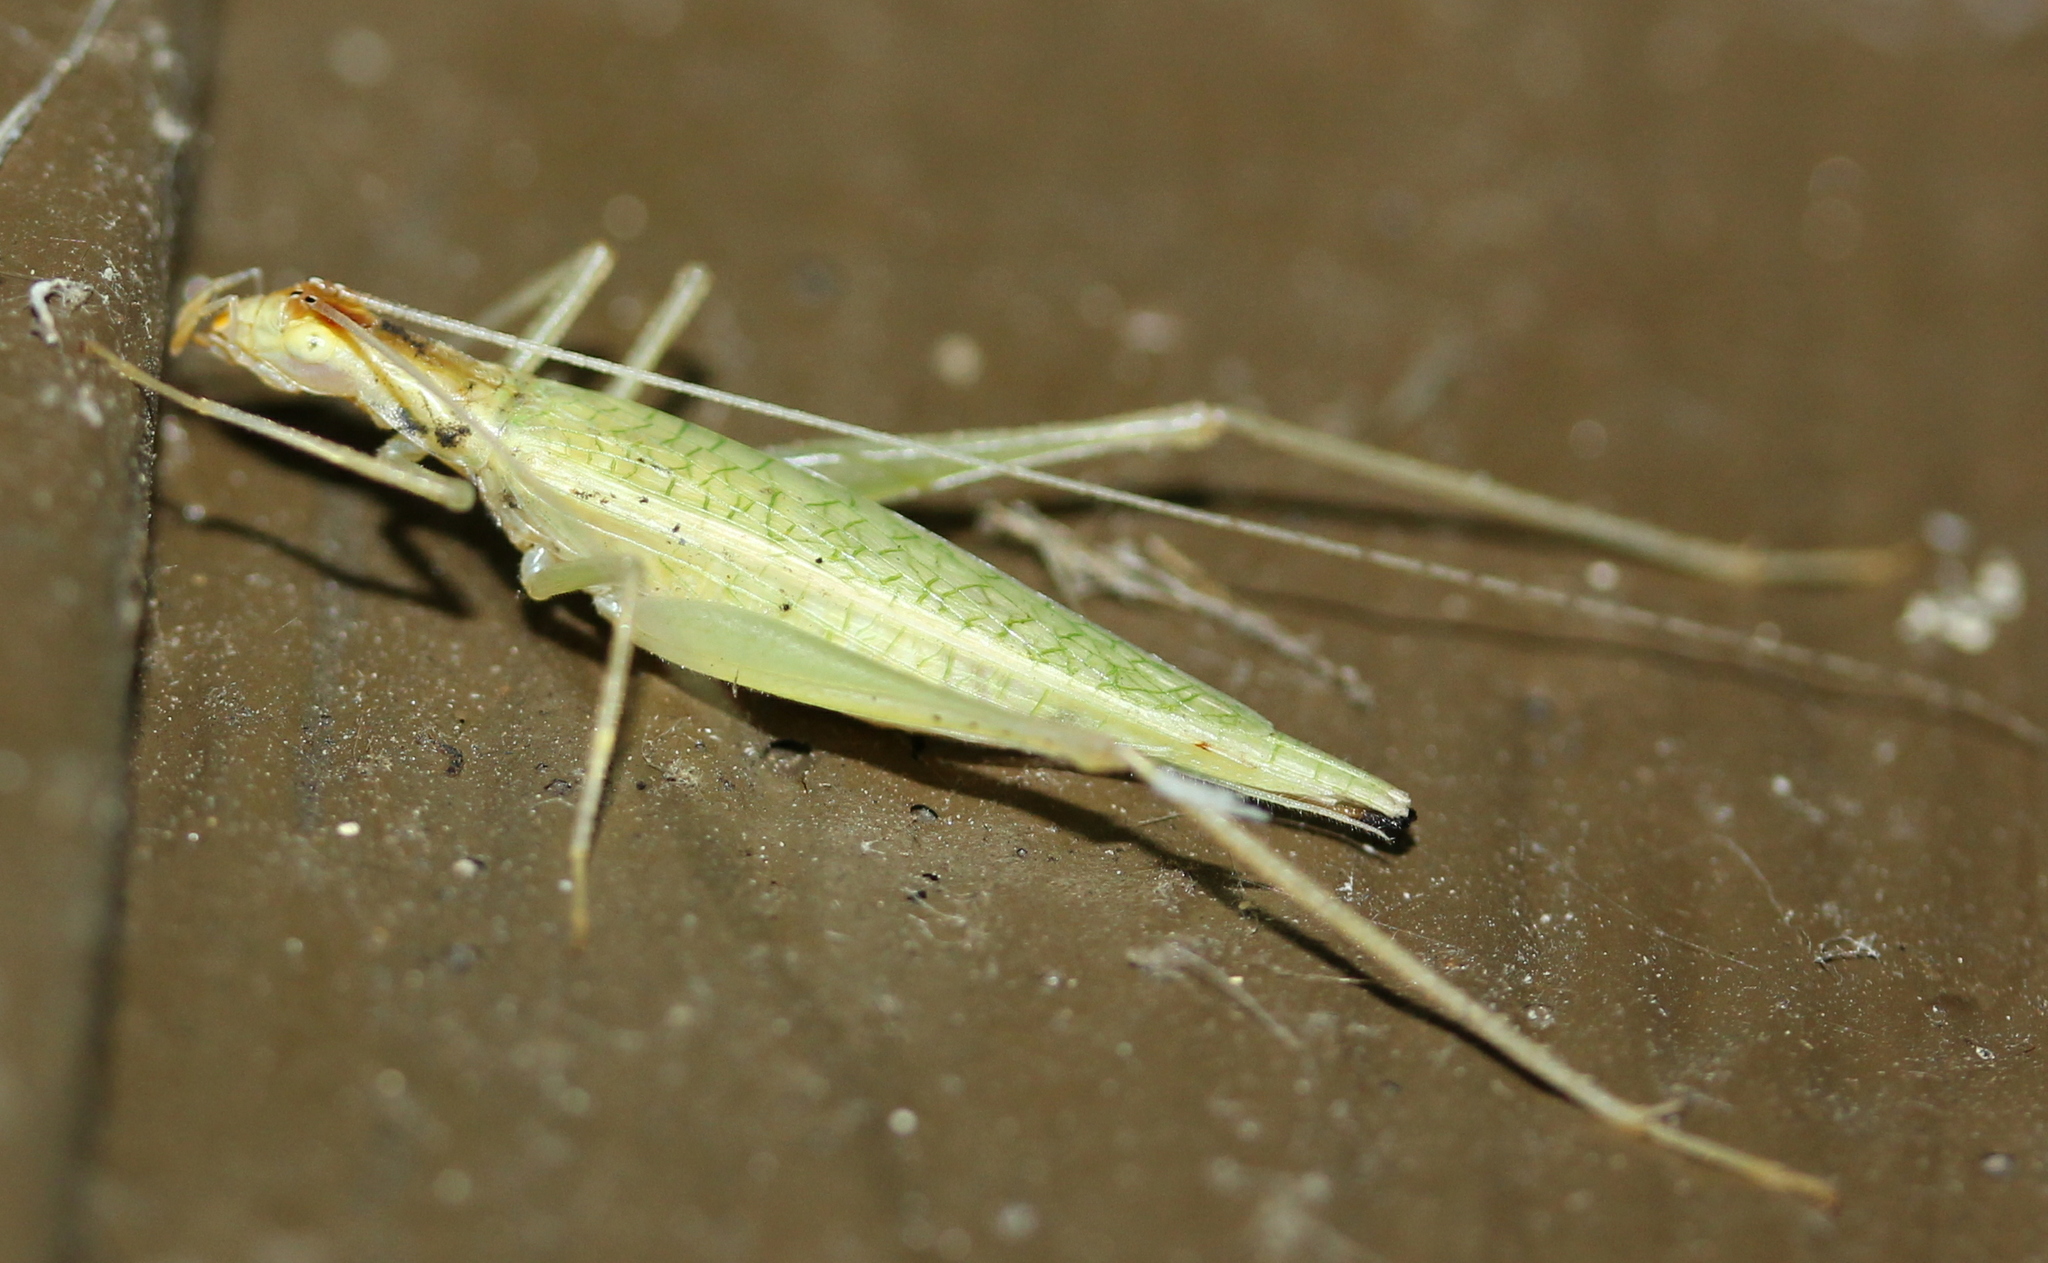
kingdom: Animalia
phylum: Arthropoda
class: Insecta
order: Orthoptera
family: Gryllidae
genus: Oecanthus
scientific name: Oecanthus niveus
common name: Narrow-winged tree cricket
